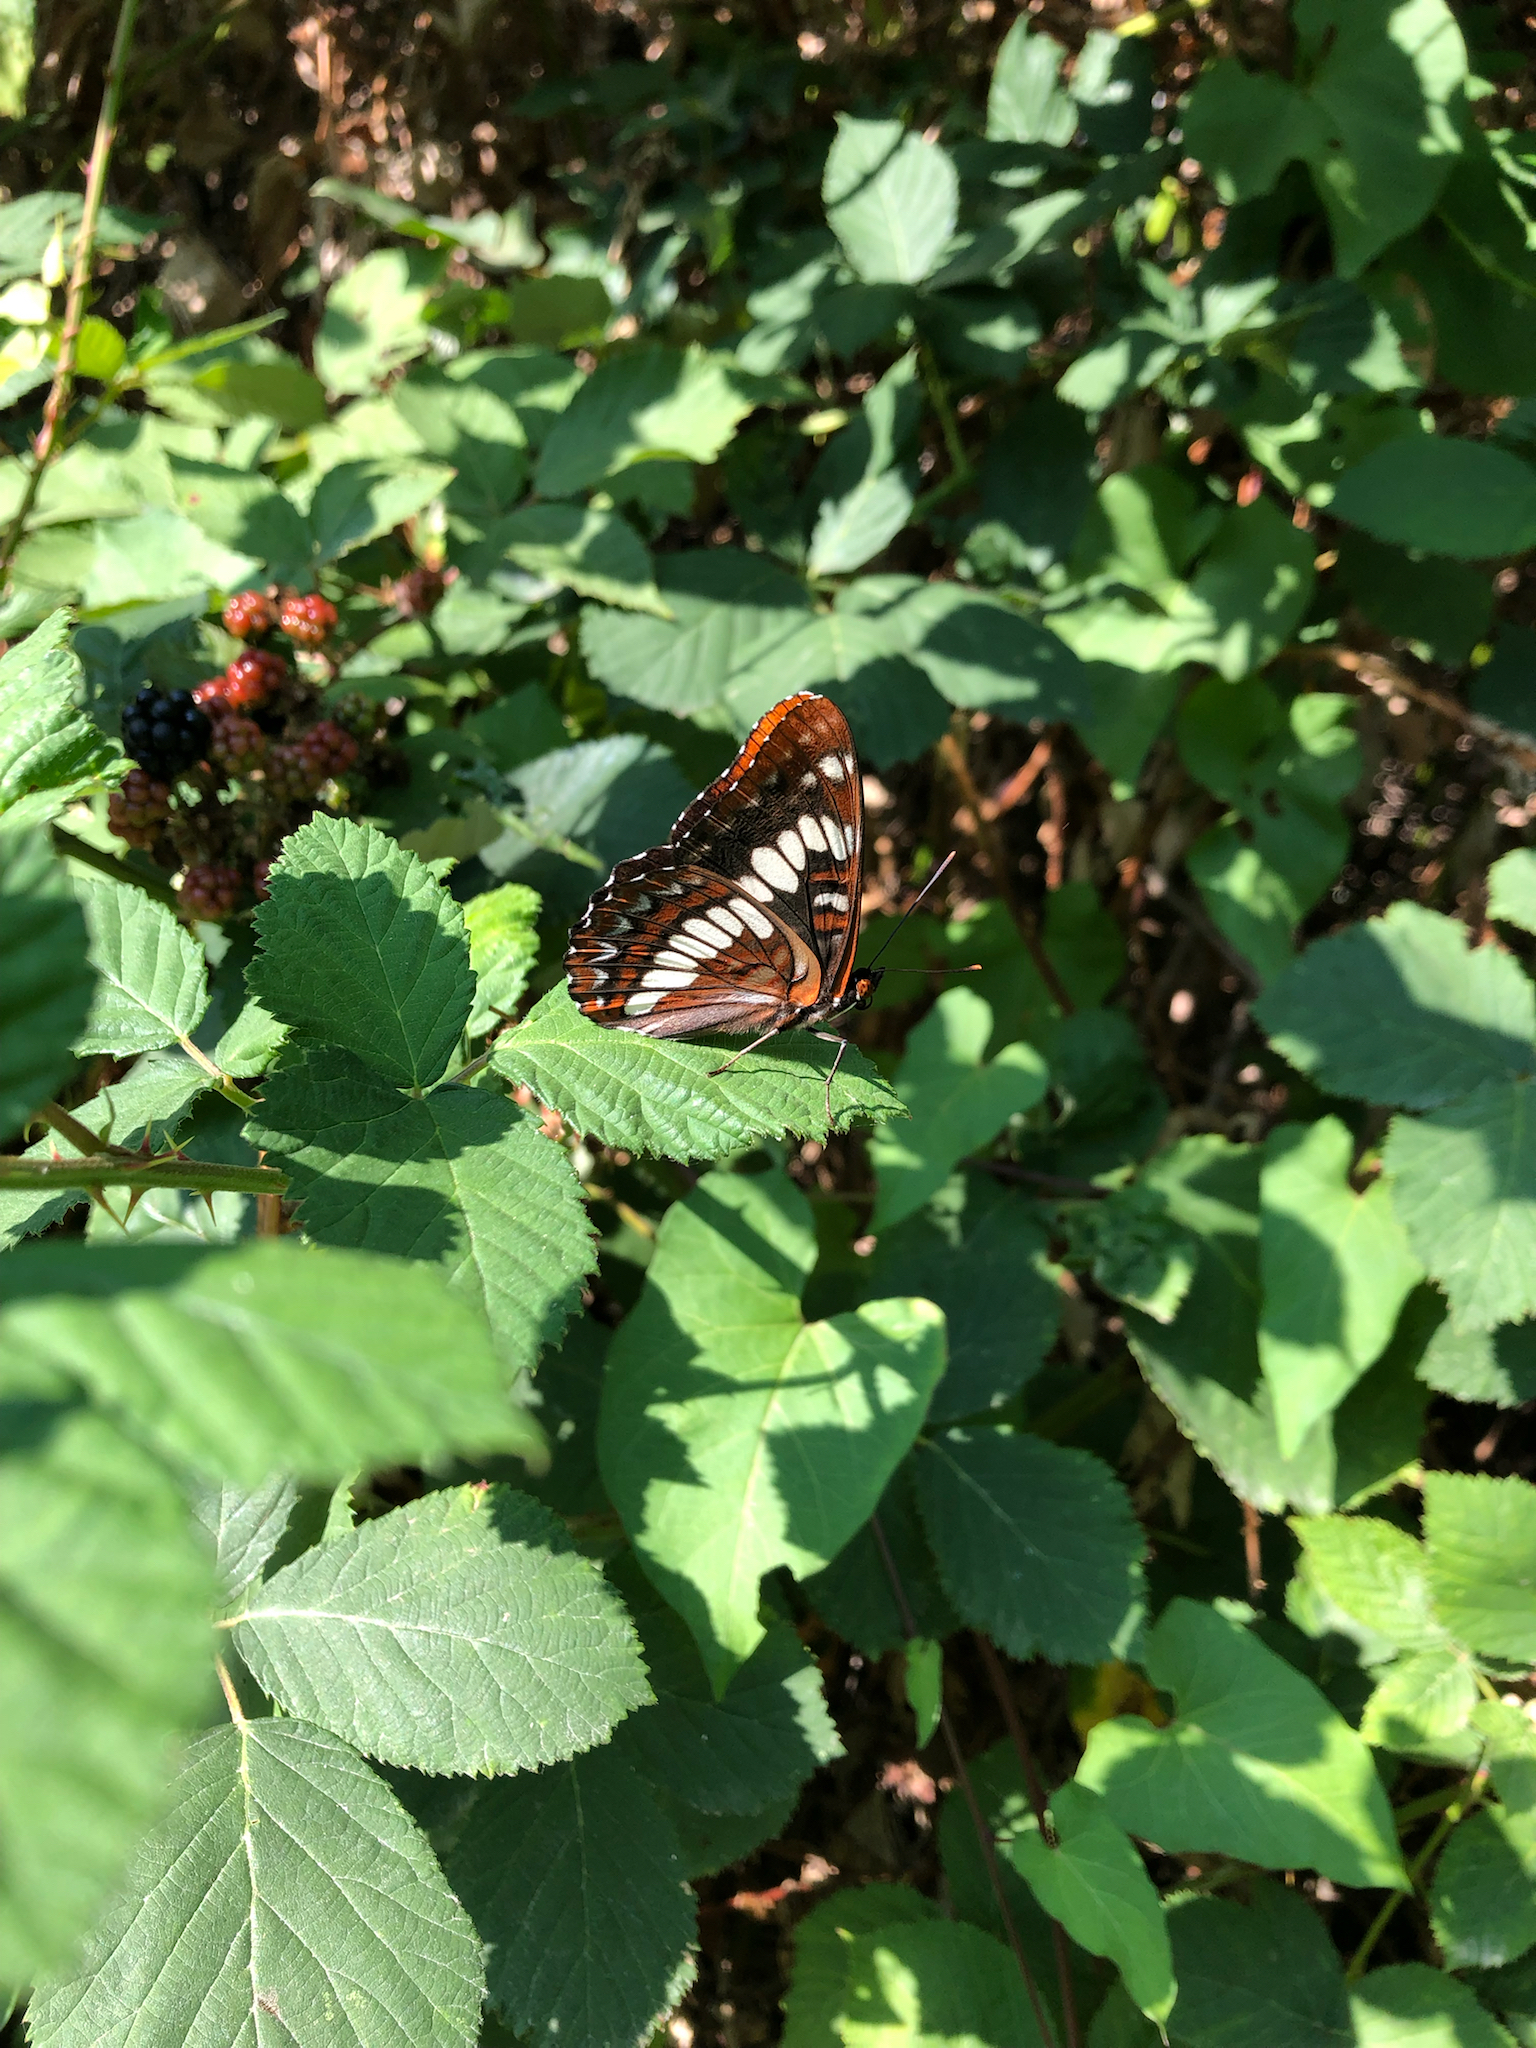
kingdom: Animalia
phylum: Arthropoda
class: Insecta
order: Lepidoptera
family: Nymphalidae
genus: Limenitis
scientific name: Limenitis lorquini
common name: Lorquin's admiral
